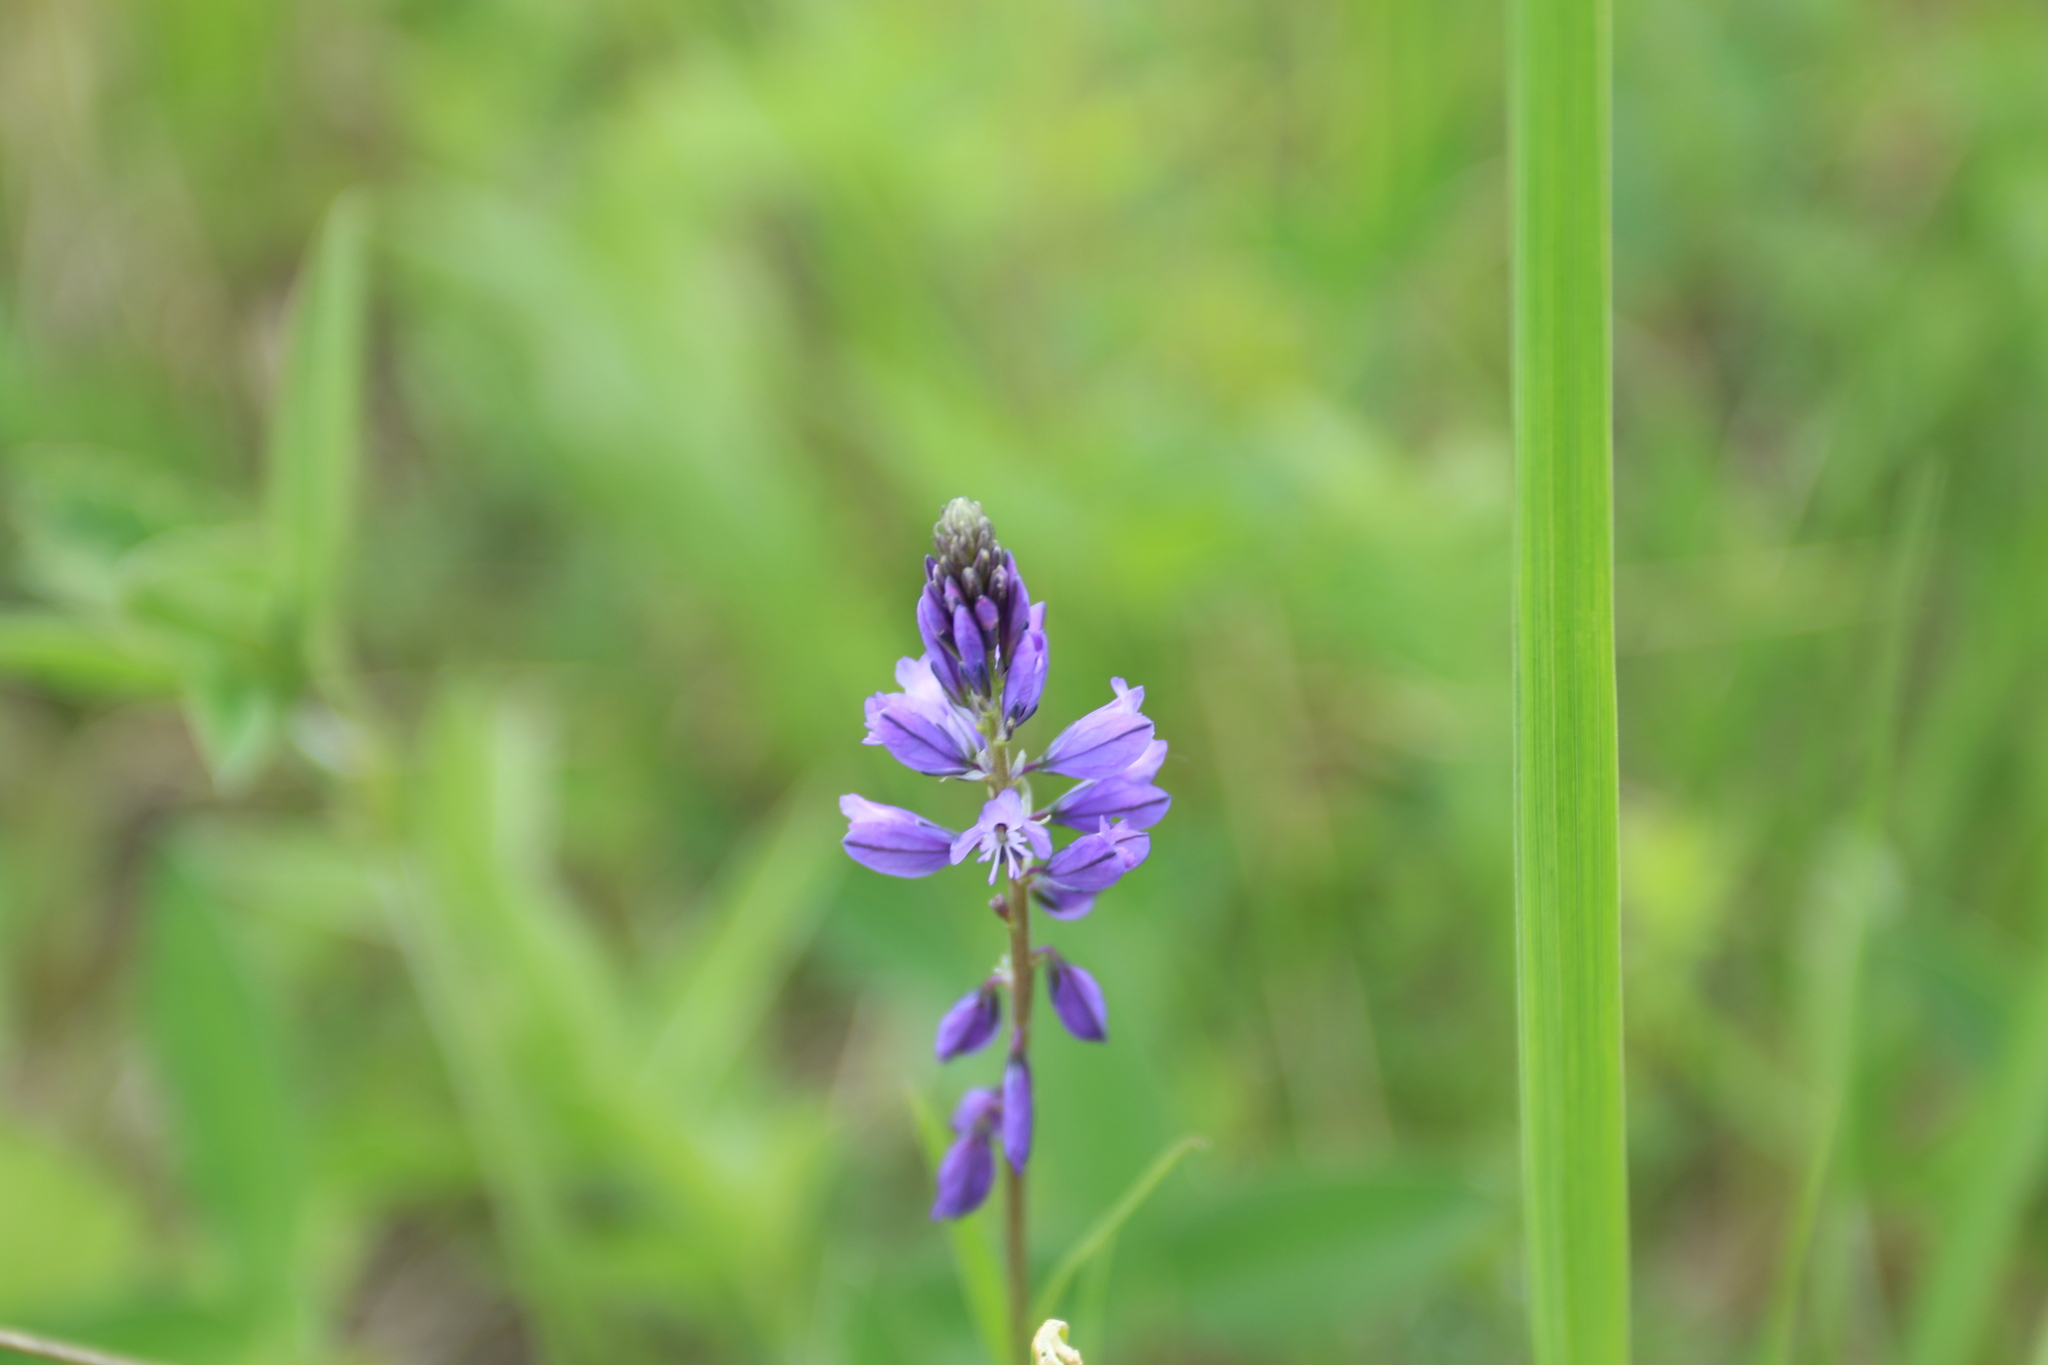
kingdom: Plantae
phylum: Tracheophyta
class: Magnoliopsida
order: Fabales
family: Polygalaceae
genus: Polygala
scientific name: Polygala comosa
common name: Tufted milkwort
